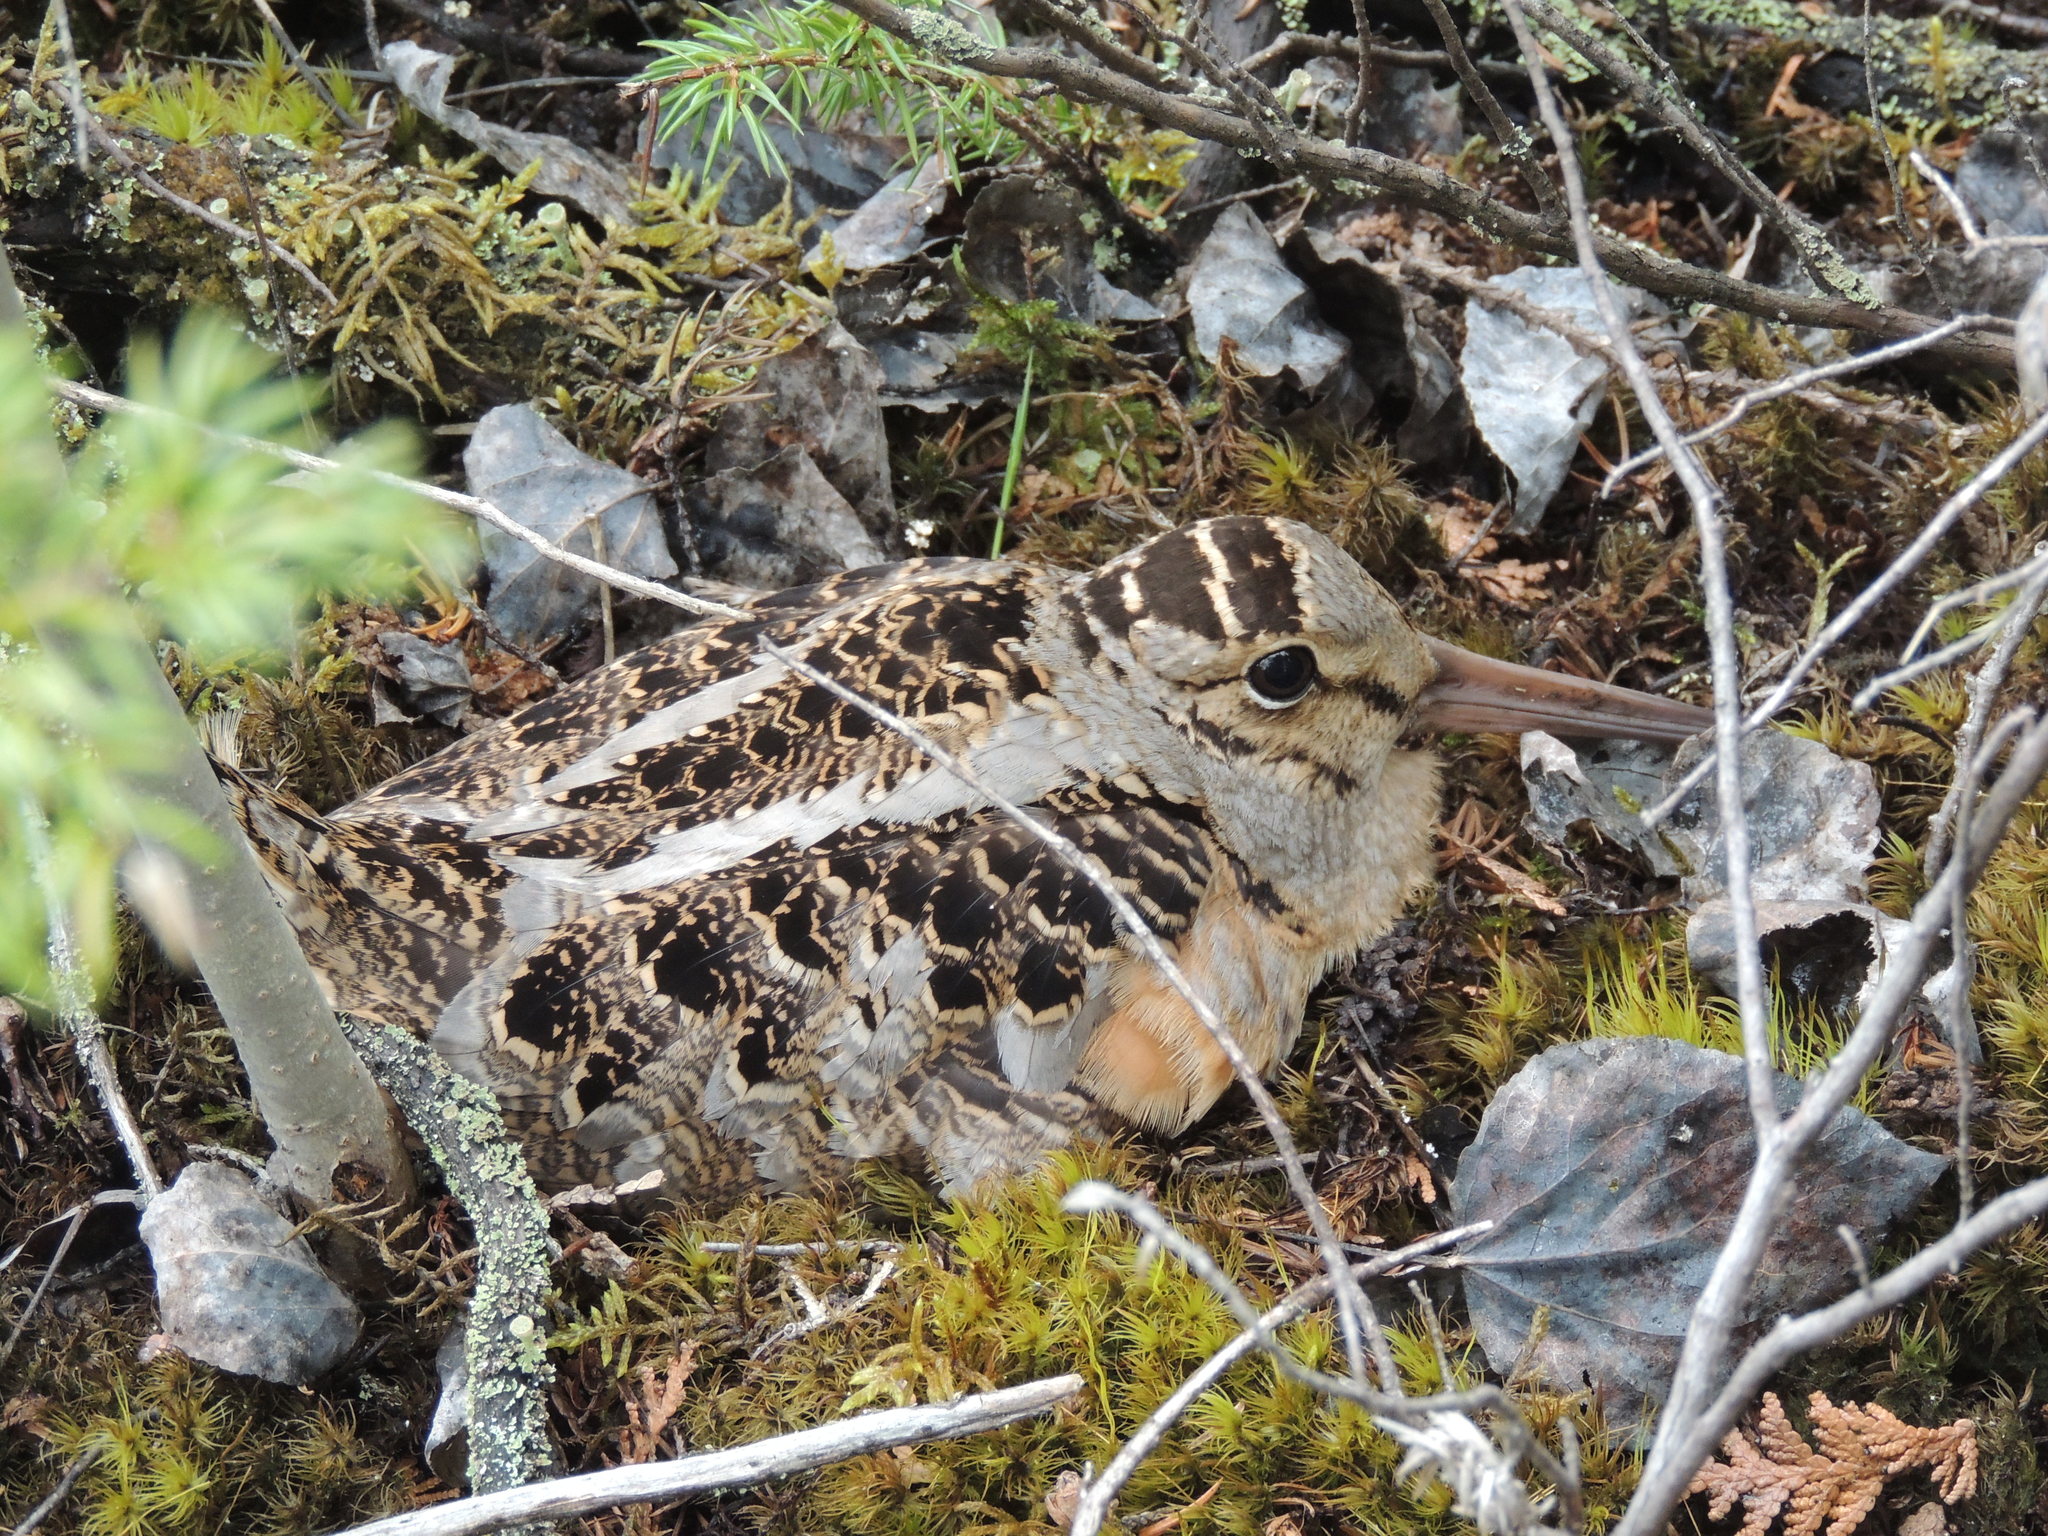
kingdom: Animalia
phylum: Chordata
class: Aves
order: Charadriiformes
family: Scolopacidae
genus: Scolopax
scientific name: Scolopax minor
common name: American woodcock
